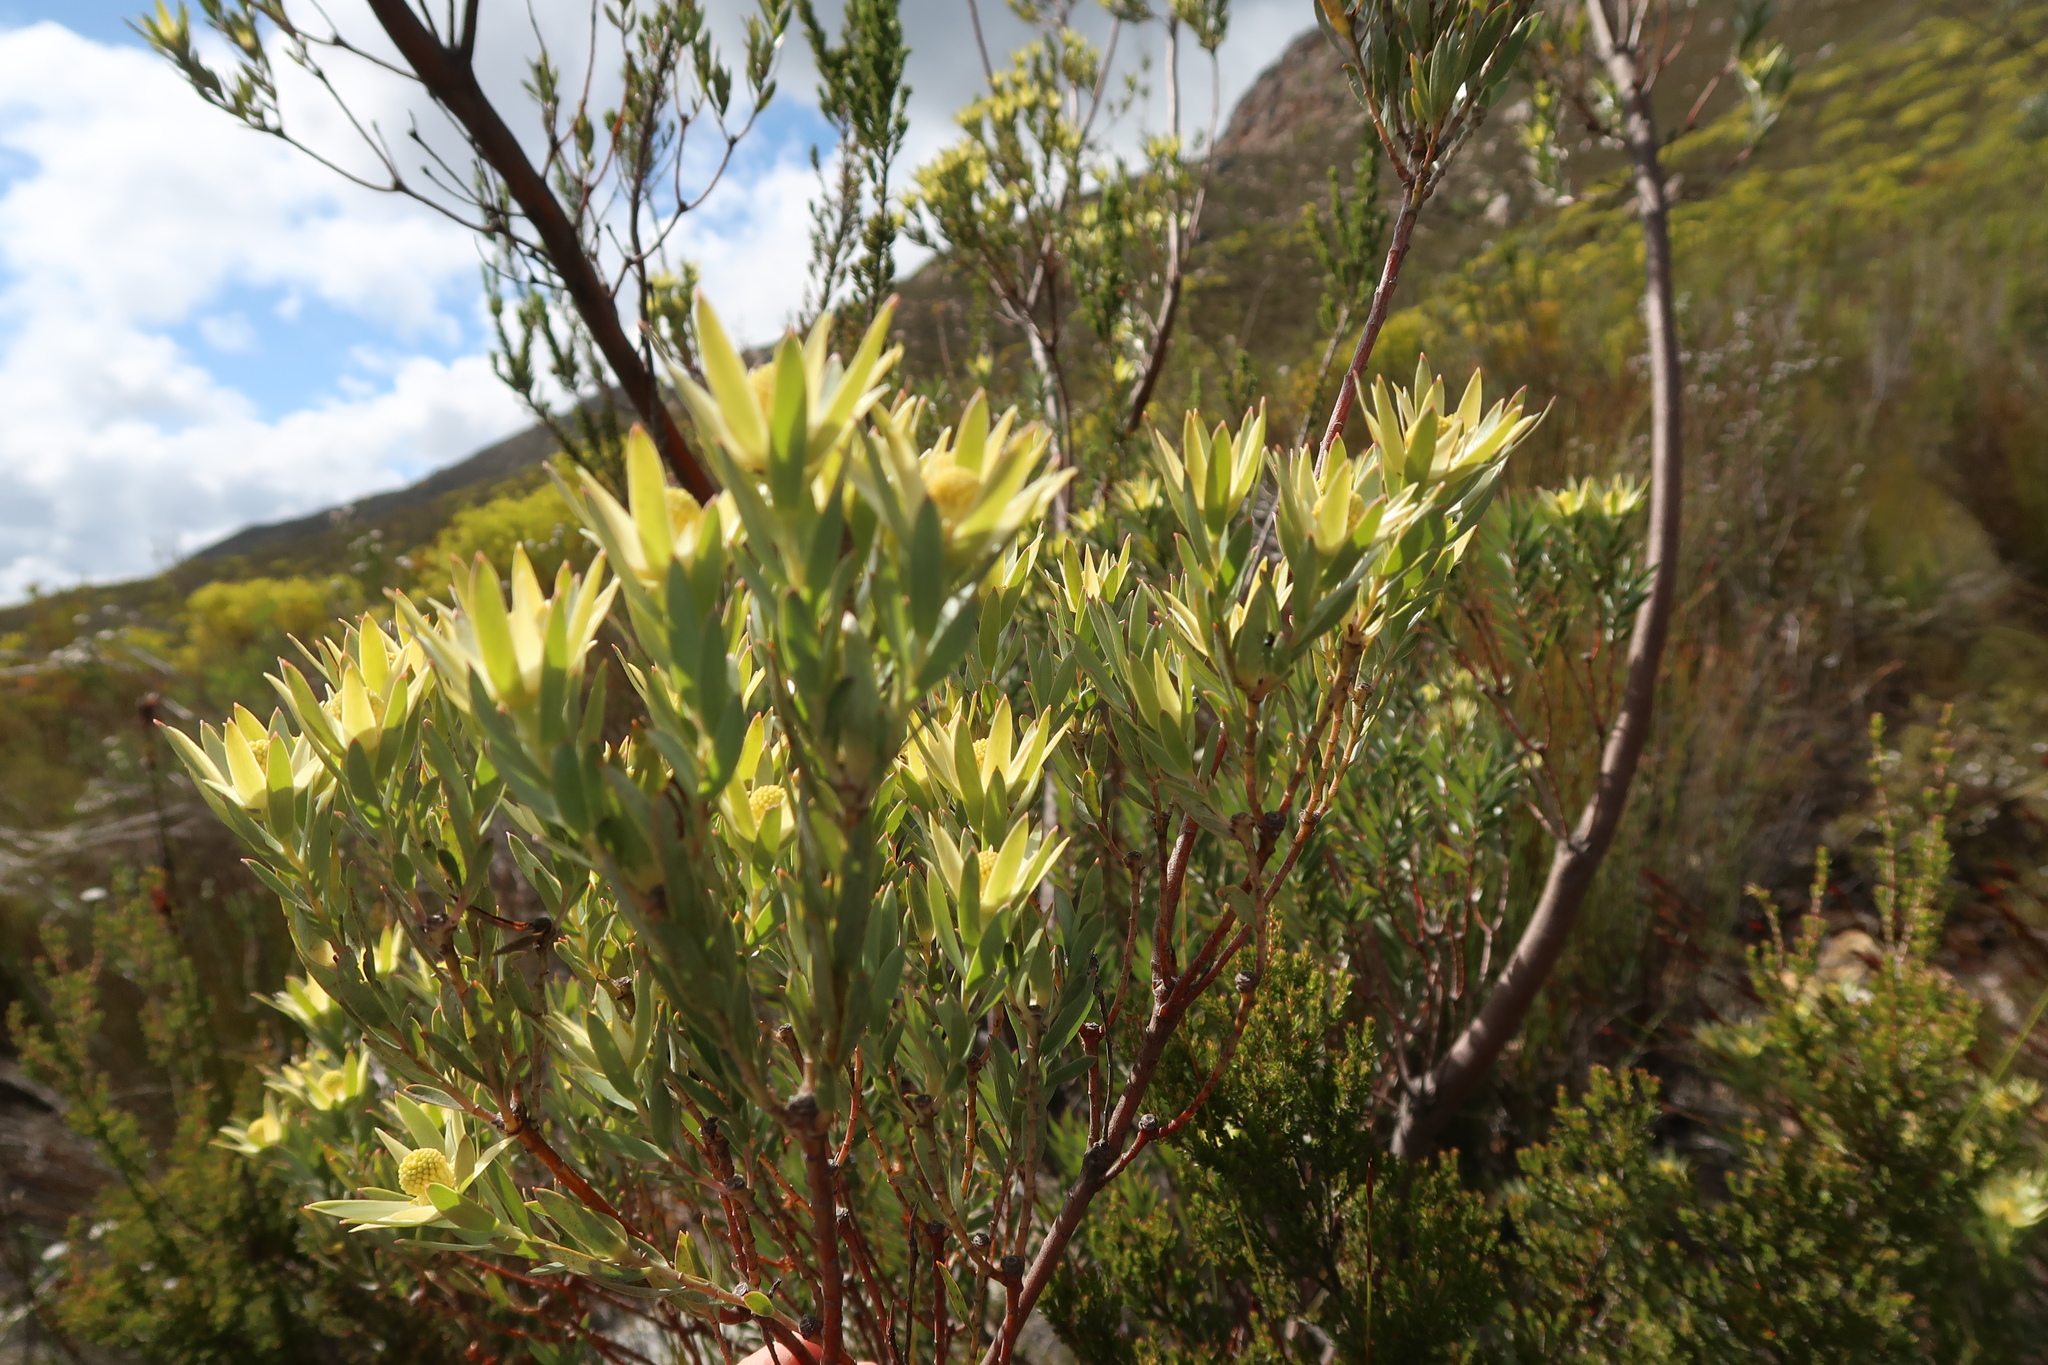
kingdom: Plantae
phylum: Tracheophyta
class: Magnoliopsida
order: Proteales
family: Proteaceae
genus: Leucadendron
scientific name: Leucadendron uliginosum
